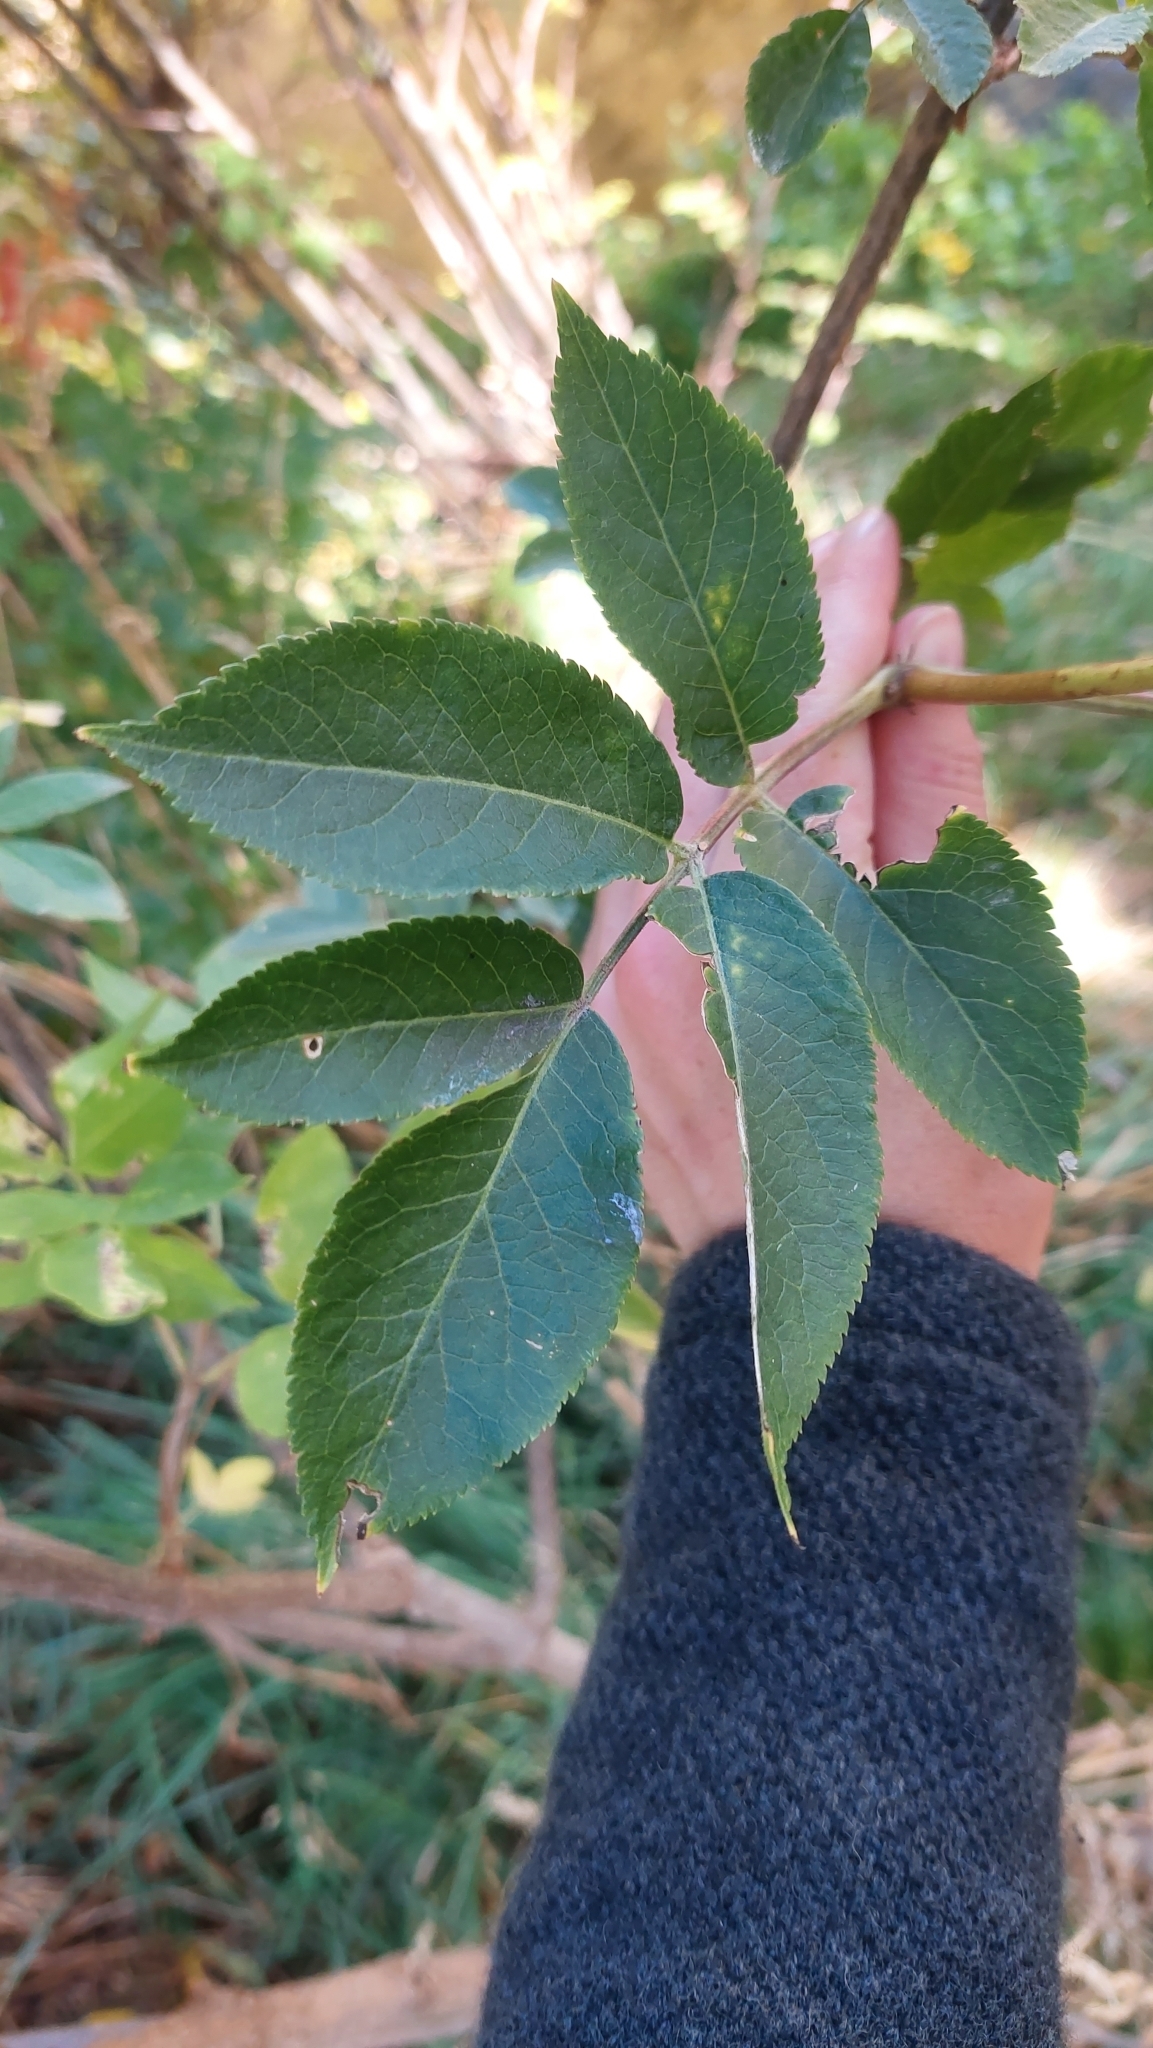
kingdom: Plantae
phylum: Tracheophyta
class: Magnoliopsida
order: Dipsacales
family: Viburnaceae
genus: Sambucus
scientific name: Sambucus nigra
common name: Elder
